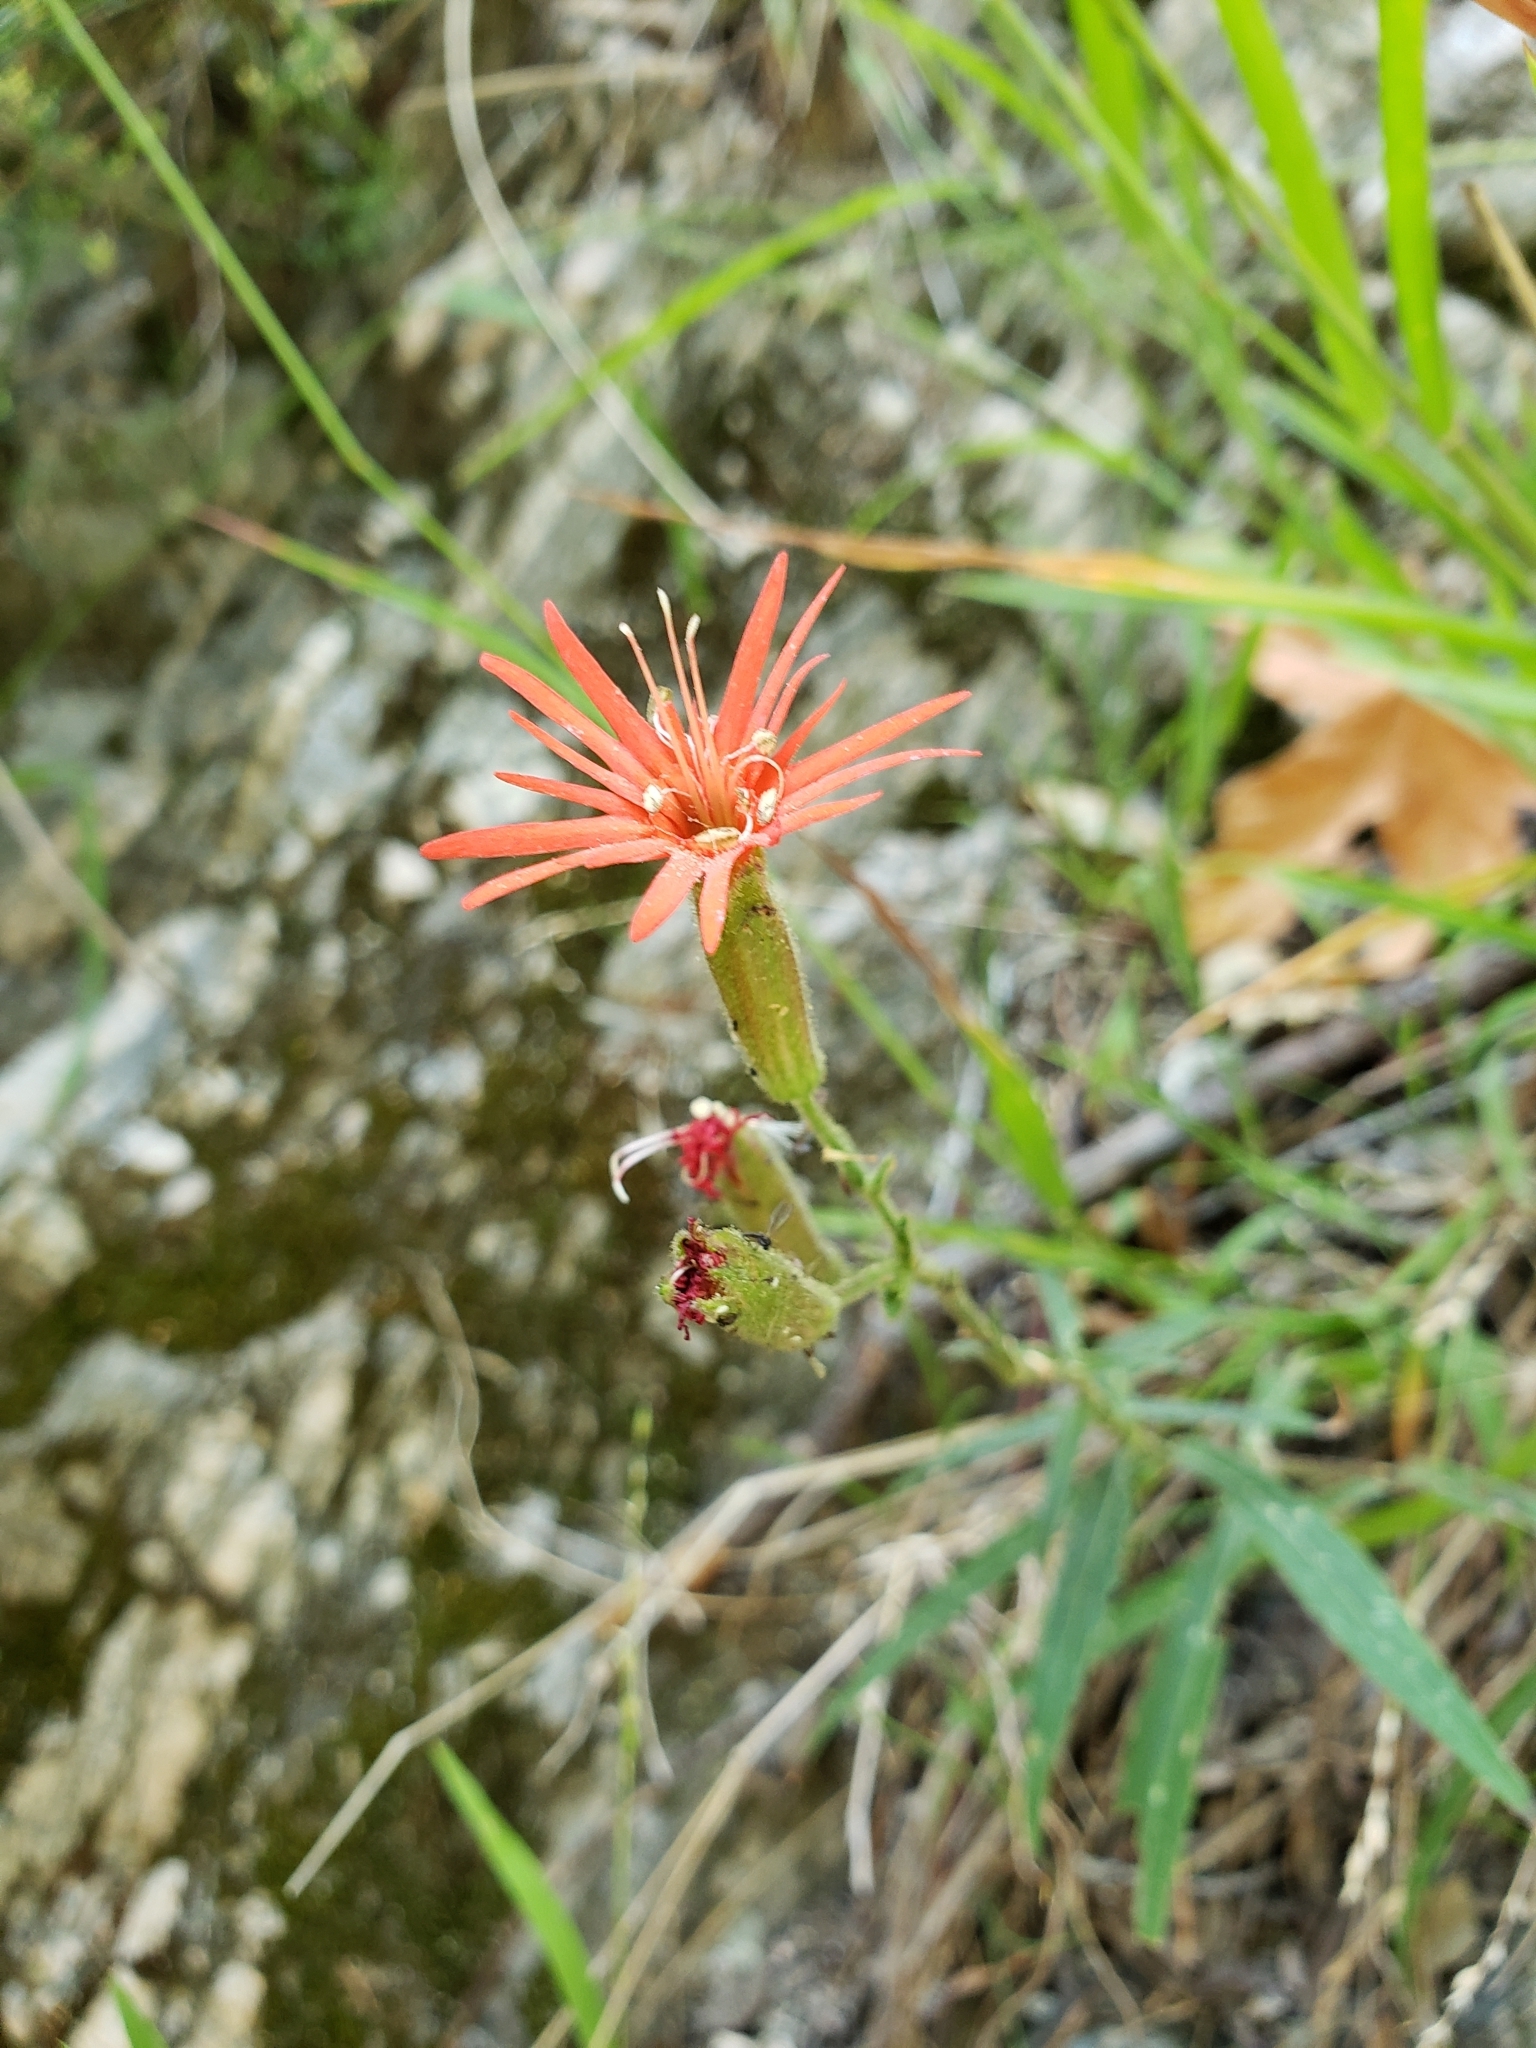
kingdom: Plantae
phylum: Tracheophyta
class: Magnoliopsida
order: Caryophyllales
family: Caryophyllaceae
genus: Silene
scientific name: Silene laciniata
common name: Indian-pink
